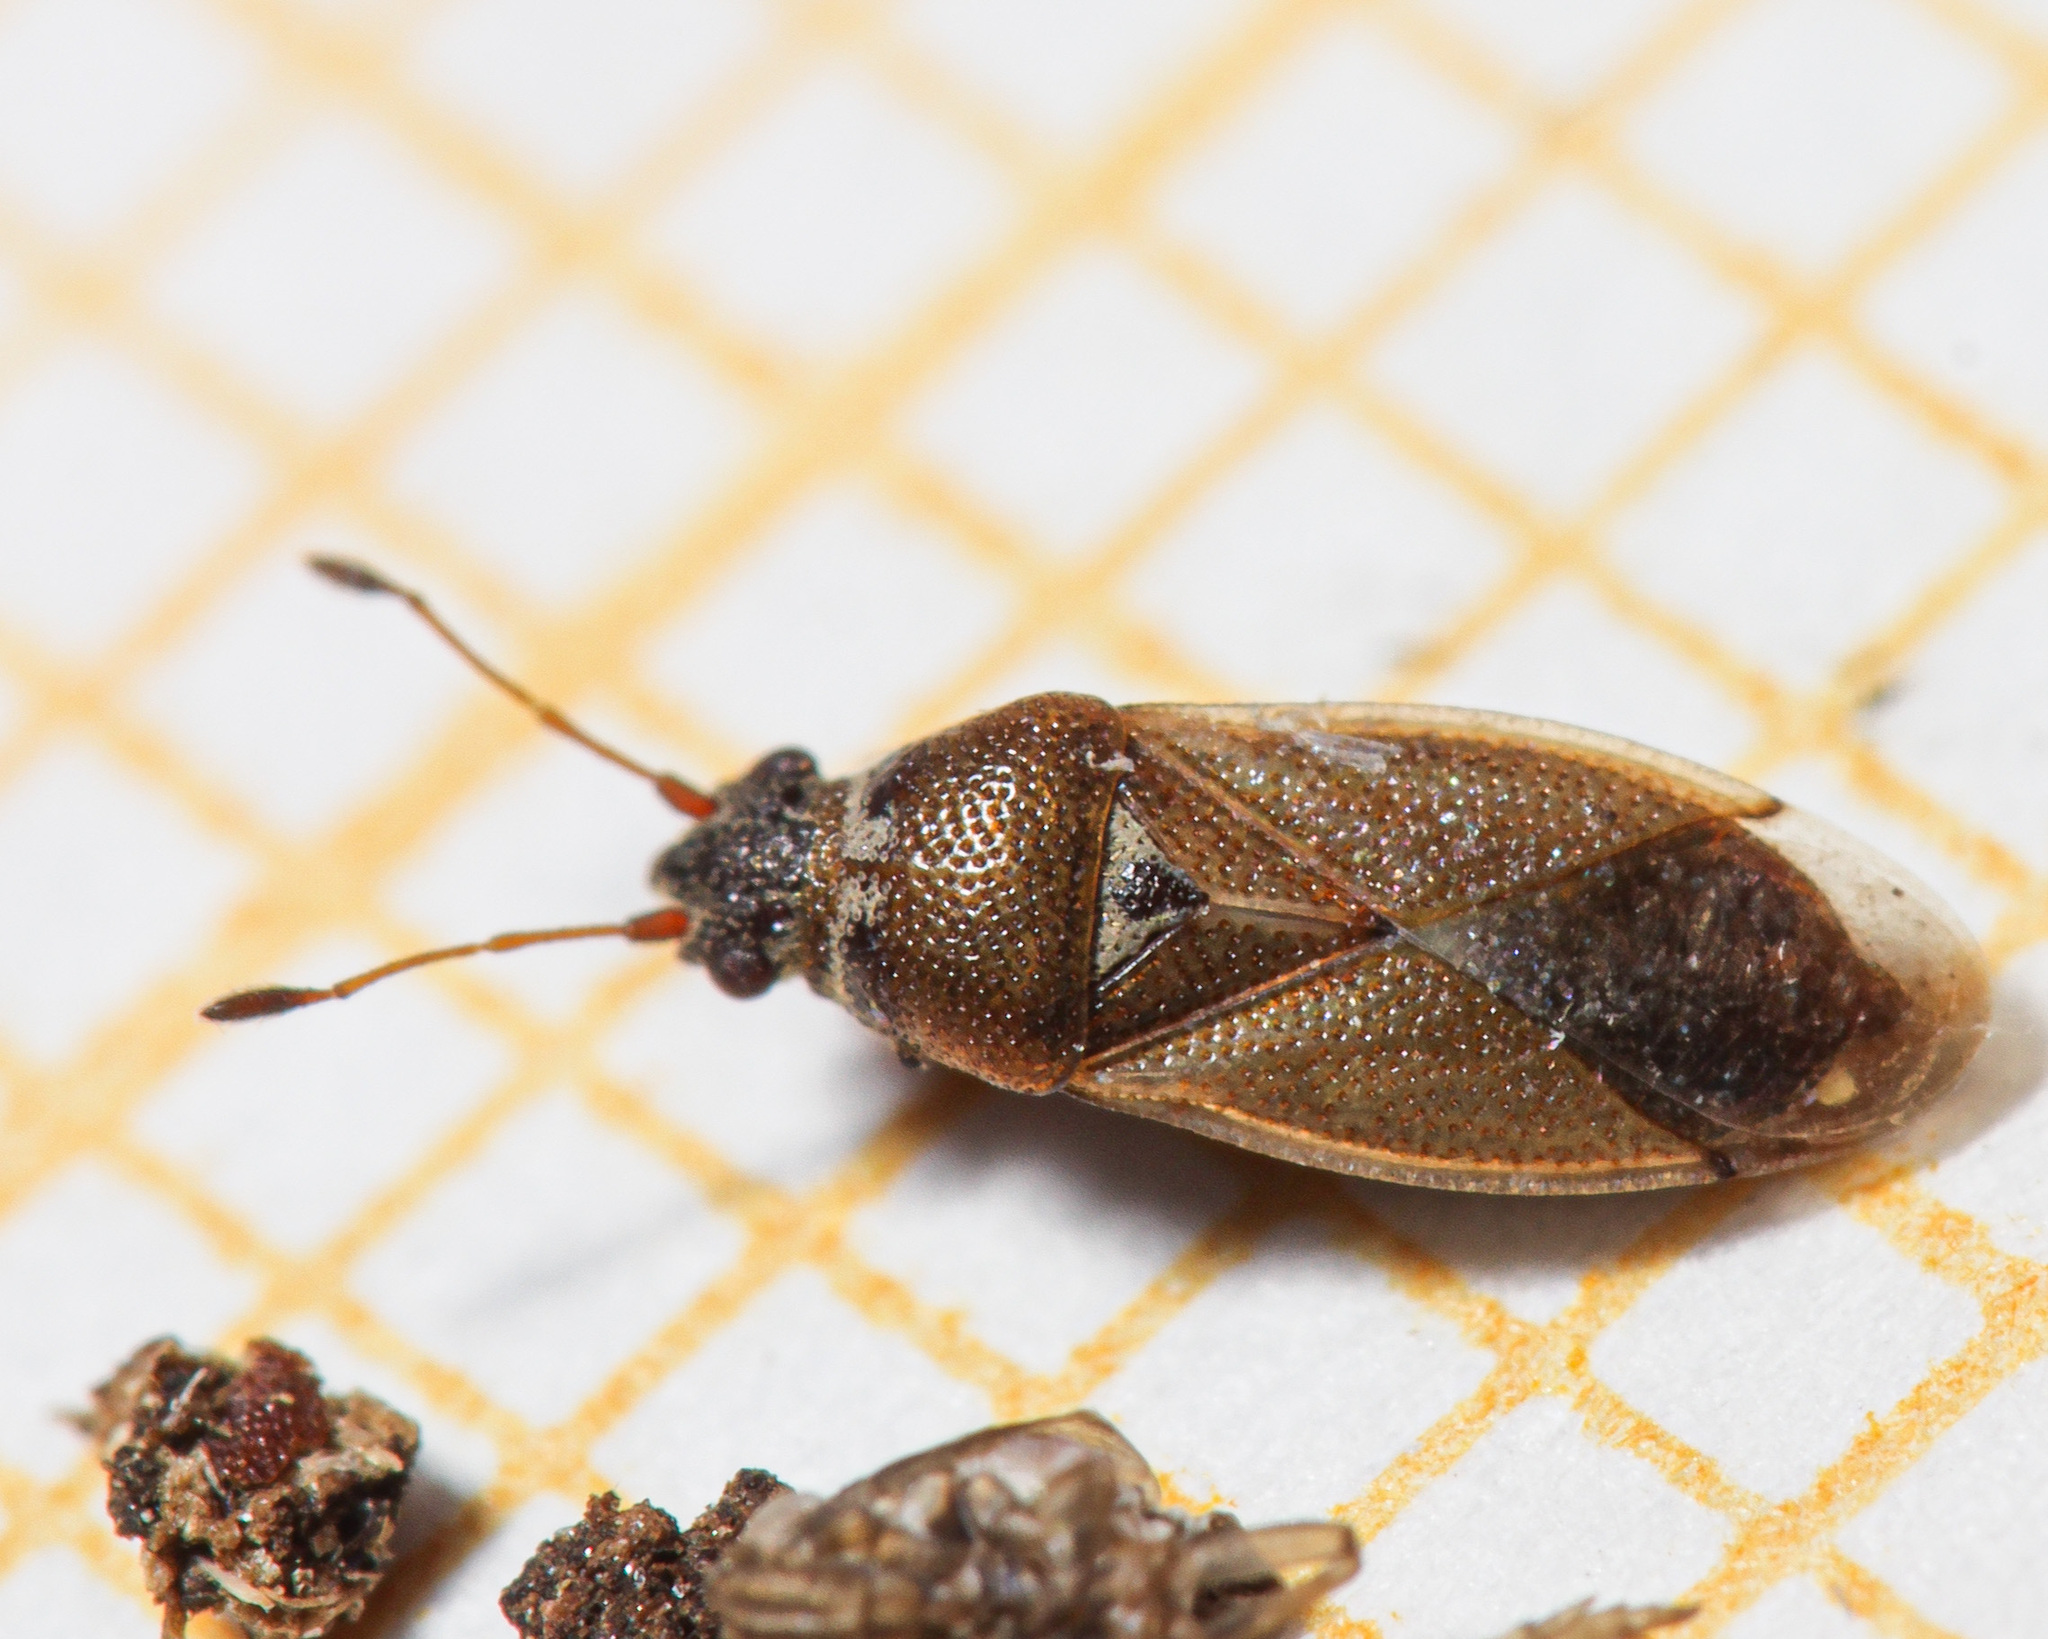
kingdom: Animalia
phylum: Arthropoda
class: Insecta
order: Hemiptera
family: Cymidae
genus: Cymus
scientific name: Cymus melanocephalus
